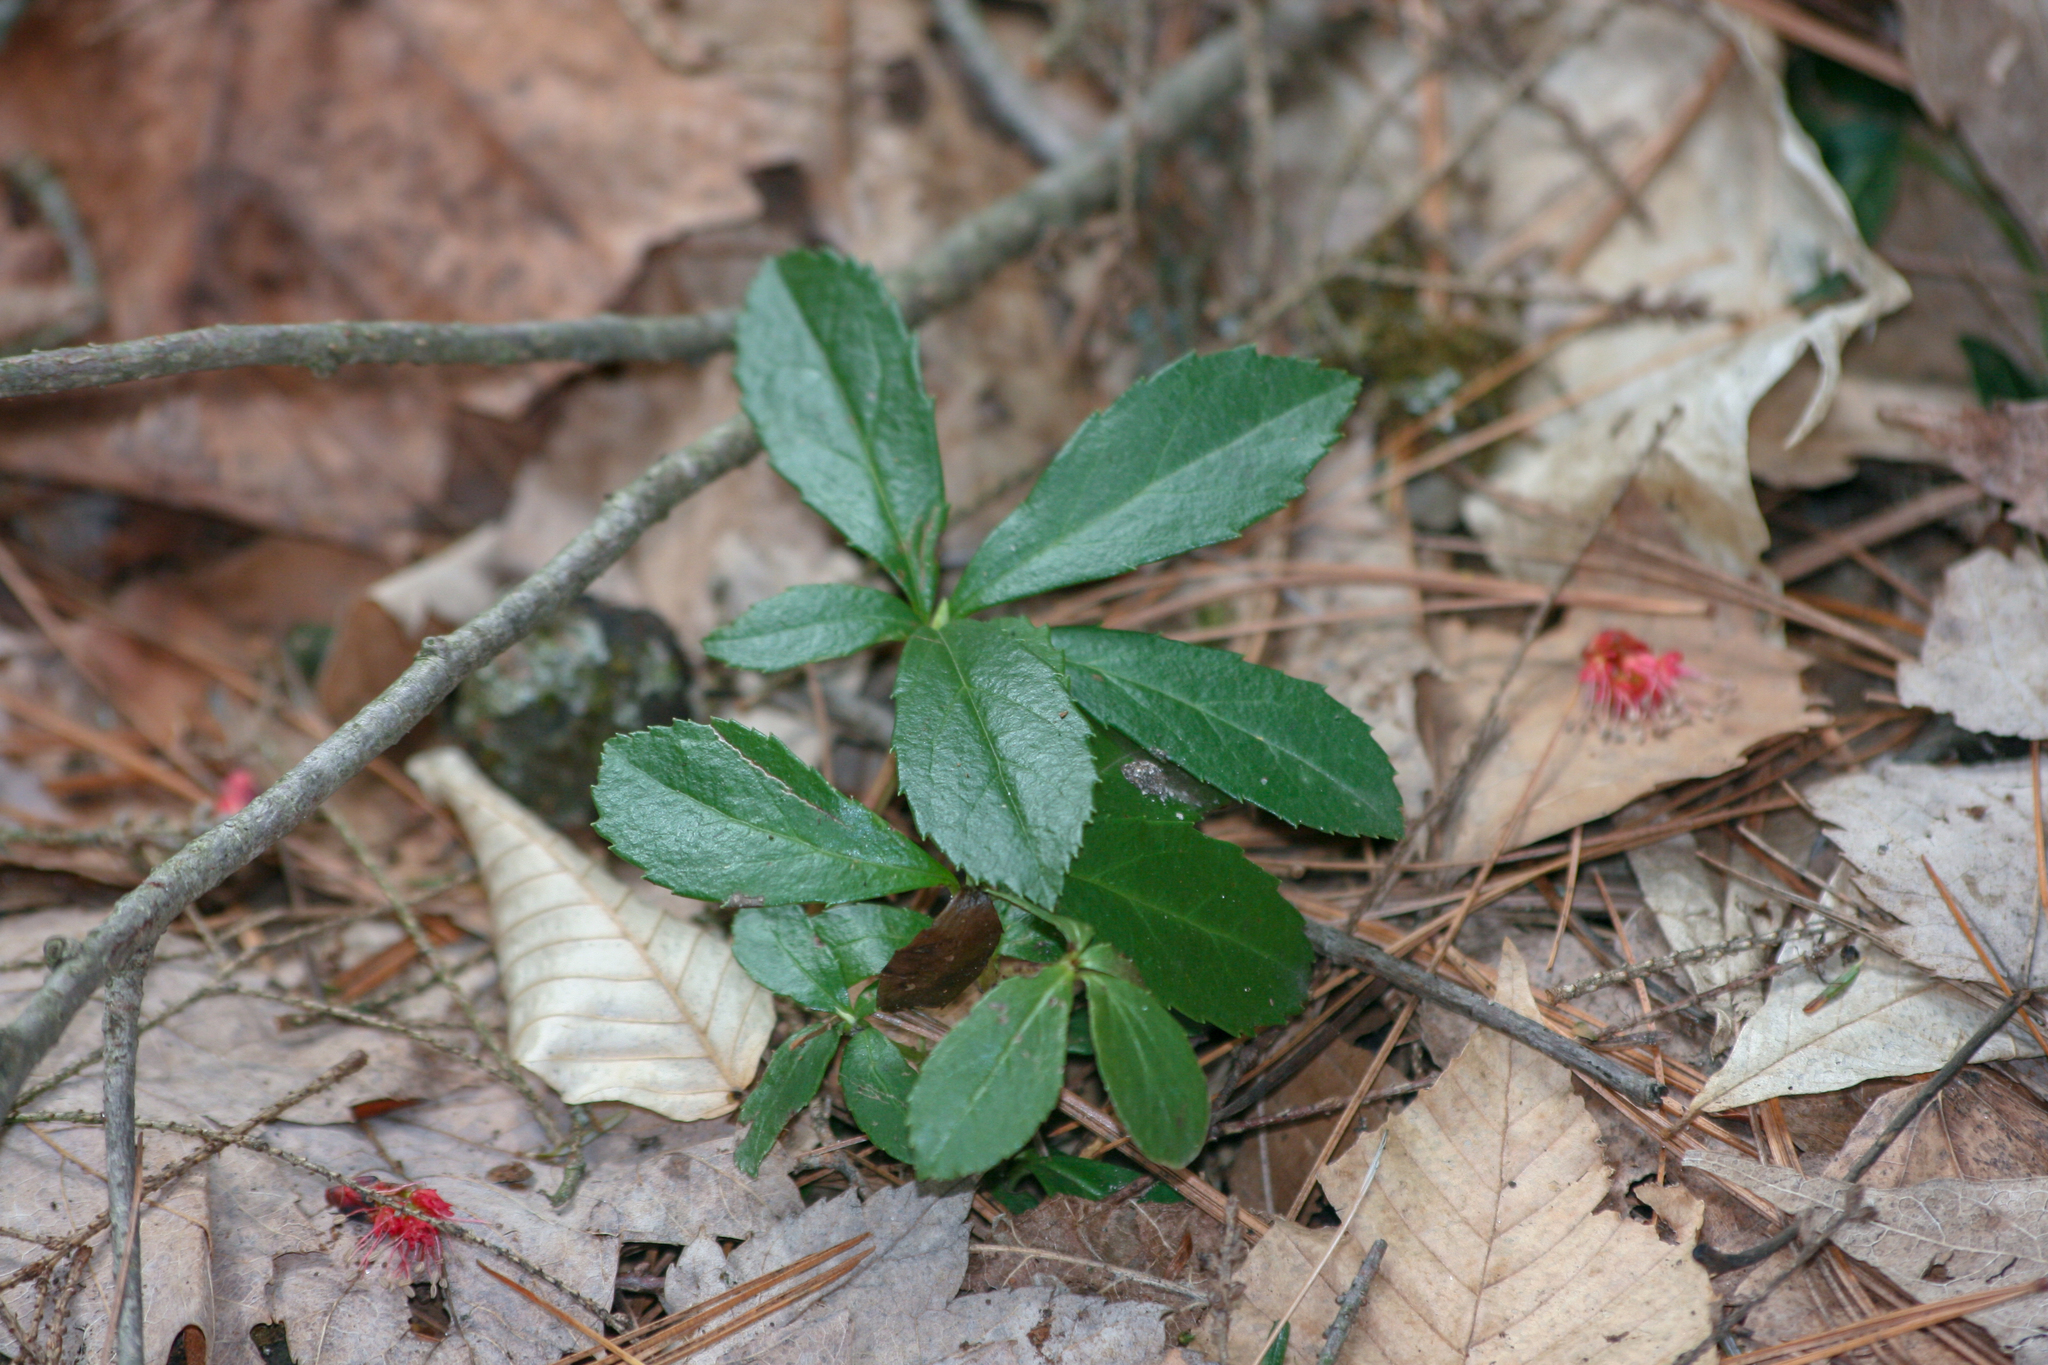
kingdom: Plantae
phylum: Tracheophyta
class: Magnoliopsida
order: Ericales
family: Ericaceae
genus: Chimaphila
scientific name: Chimaphila umbellata
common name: Pipsissewa
